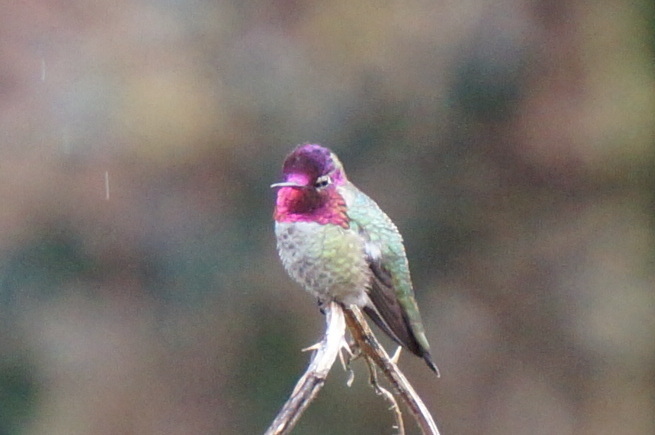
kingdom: Animalia
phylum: Chordata
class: Aves
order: Apodiformes
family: Trochilidae
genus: Calypte
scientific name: Calypte anna
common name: Anna's hummingbird
